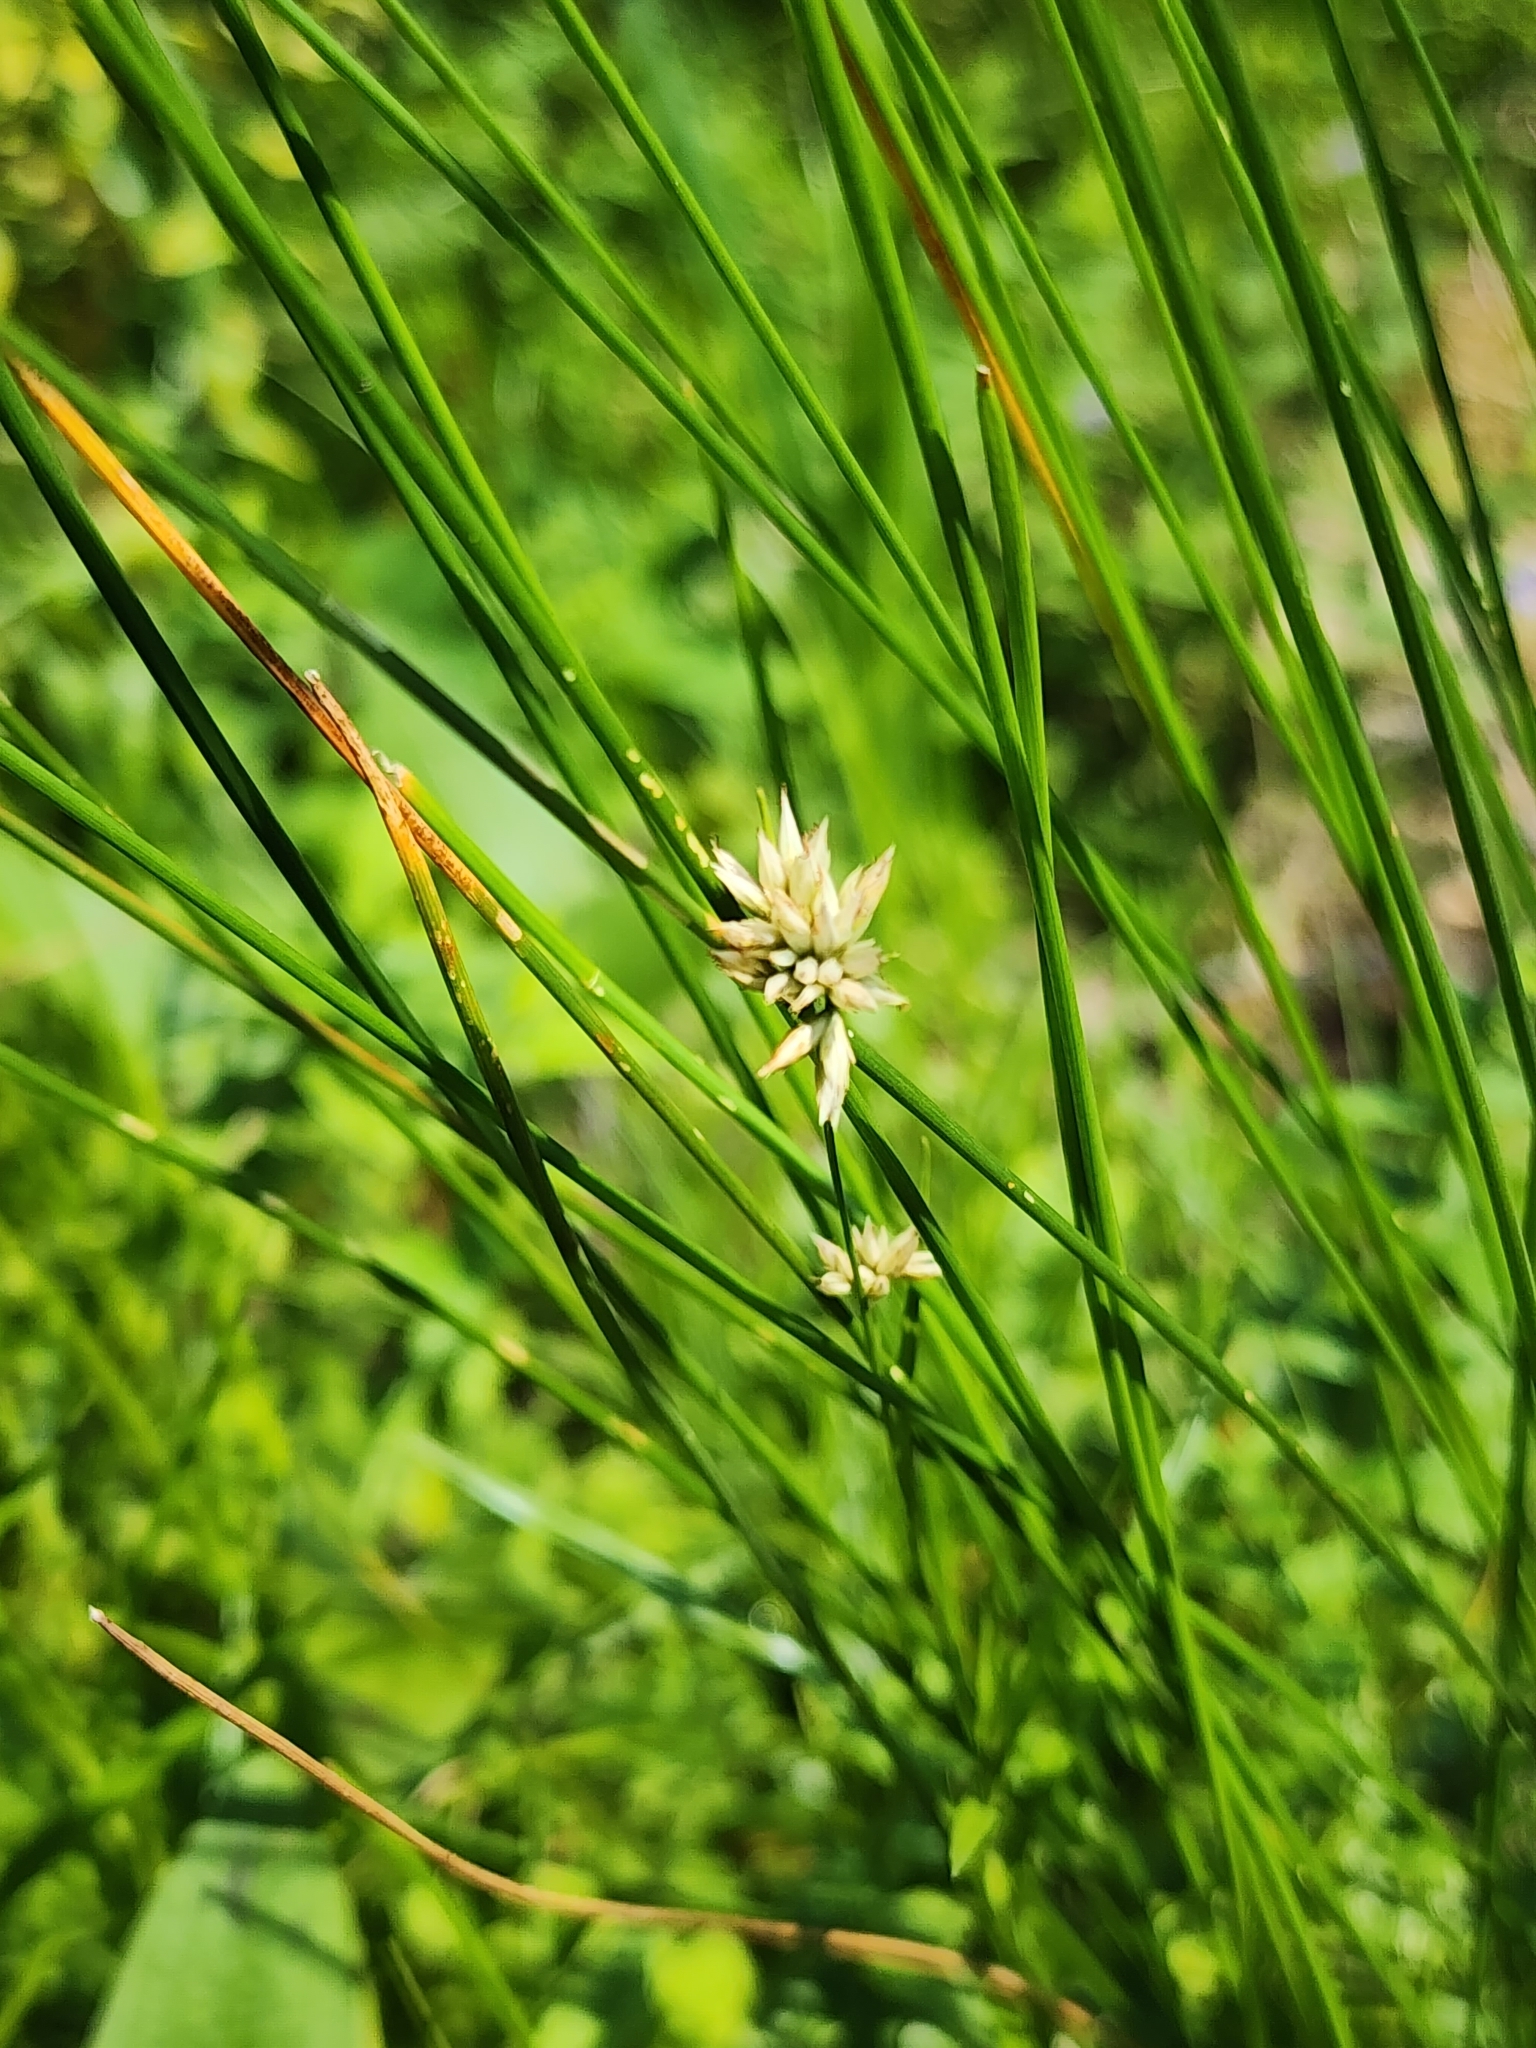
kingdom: Plantae
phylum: Tracheophyta
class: Liliopsida
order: Poales
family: Cyperaceae
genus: Rhynchospora
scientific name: Rhynchospora alba
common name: White beak-sedge
